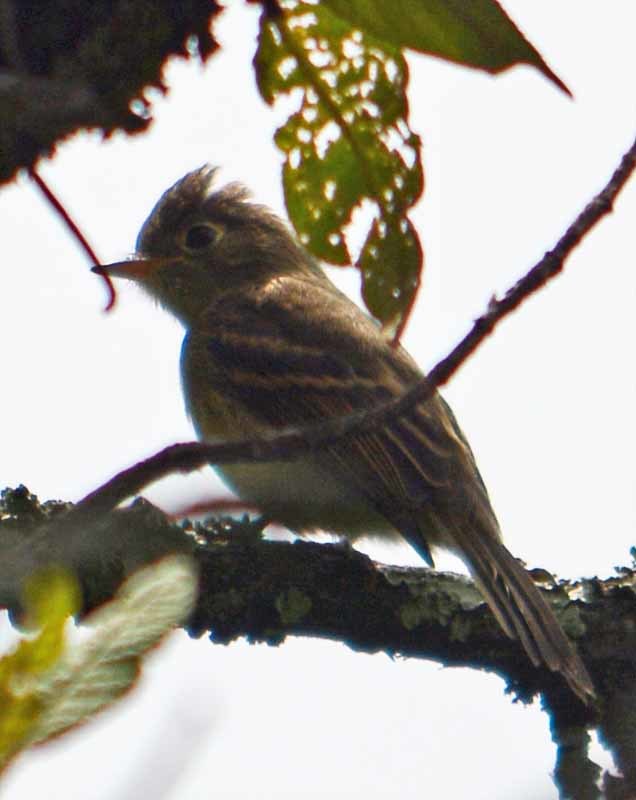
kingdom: Animalia
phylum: Chordata
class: Aves
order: Passeriformes
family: Tyrannidae
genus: Empidonax
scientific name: Empidonax difficilis
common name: Pacific-slope flycatcher
